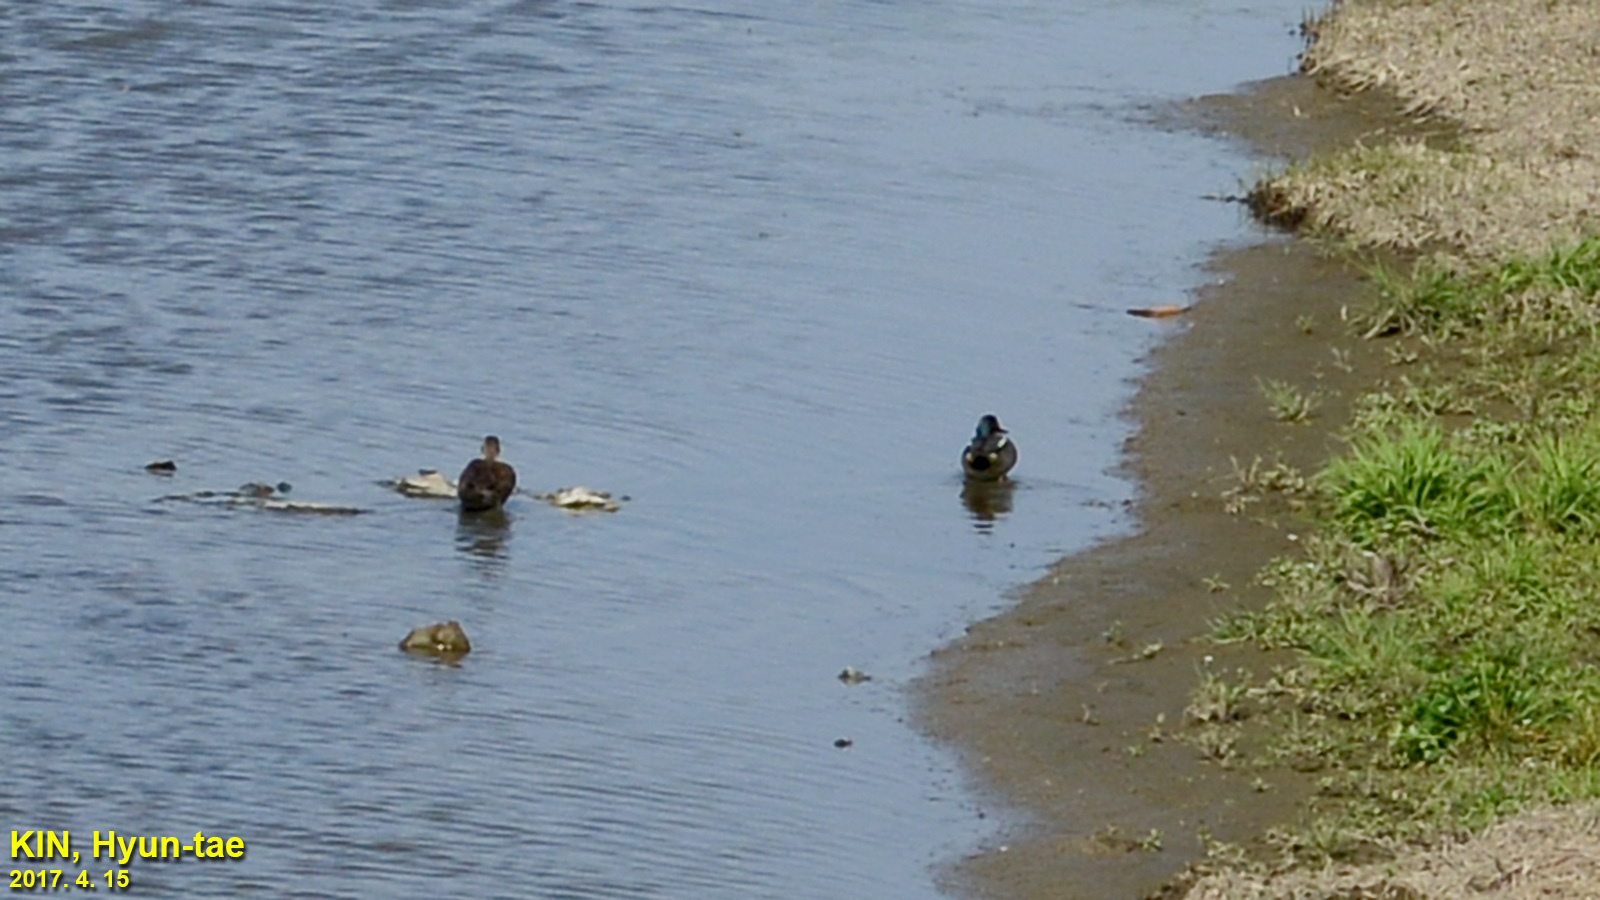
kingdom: Animalia
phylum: Chordata
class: Aves
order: Anseriformes
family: Anatidae
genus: Anas
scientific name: Anas crecca
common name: Eurasian teal
